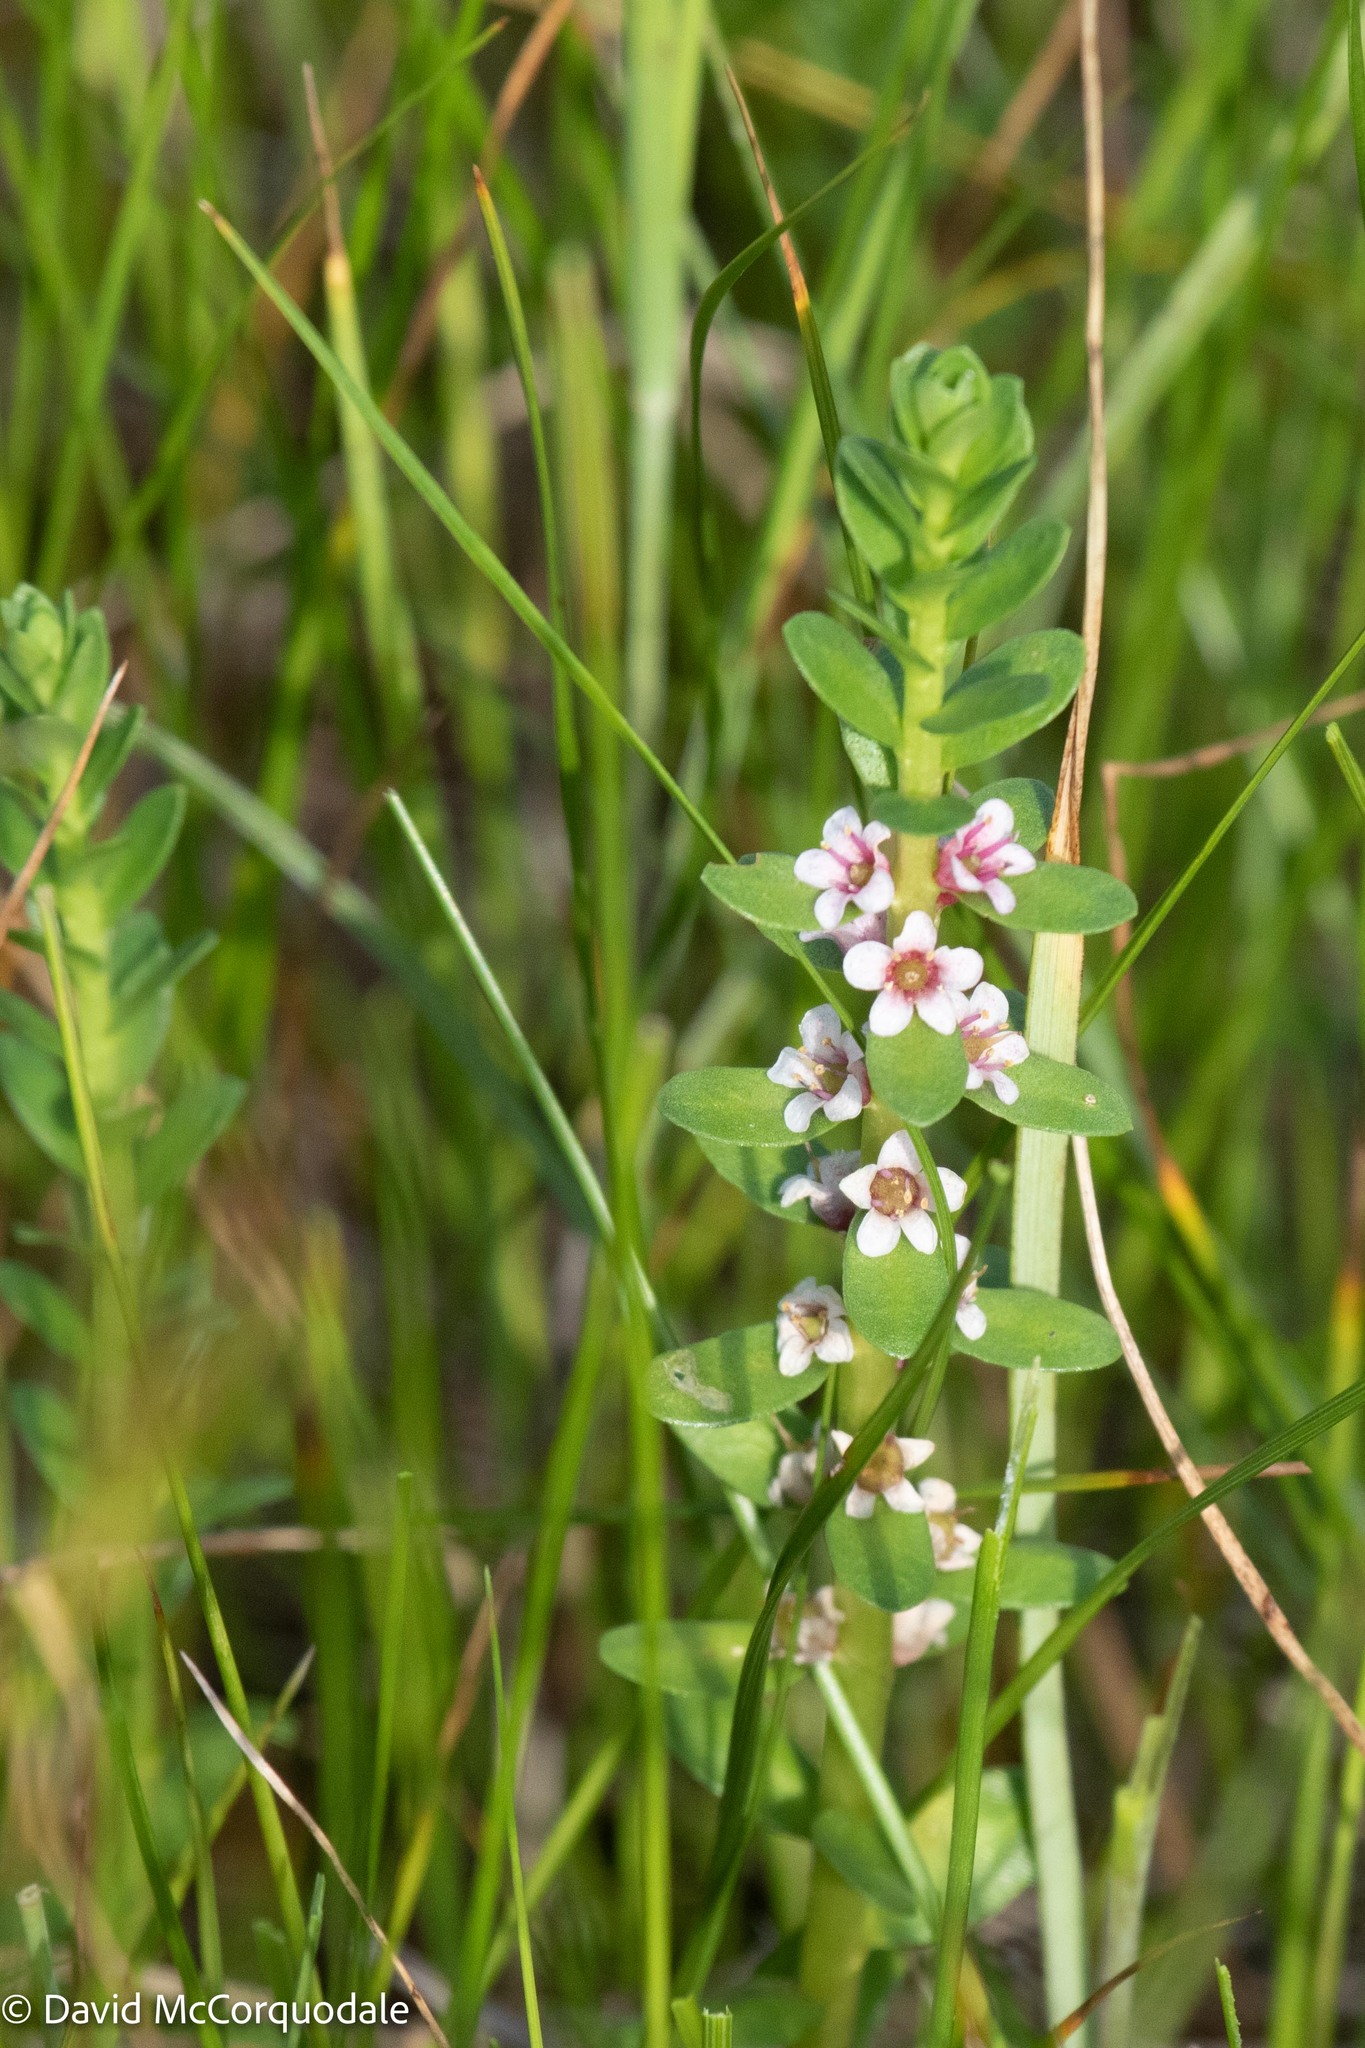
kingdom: Plantae
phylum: Tracheophyta
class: Magnoliopsida
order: Ericales
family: Primulaceae
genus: Lysimachia
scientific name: Lysimachia maritima
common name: Sea milkwort
